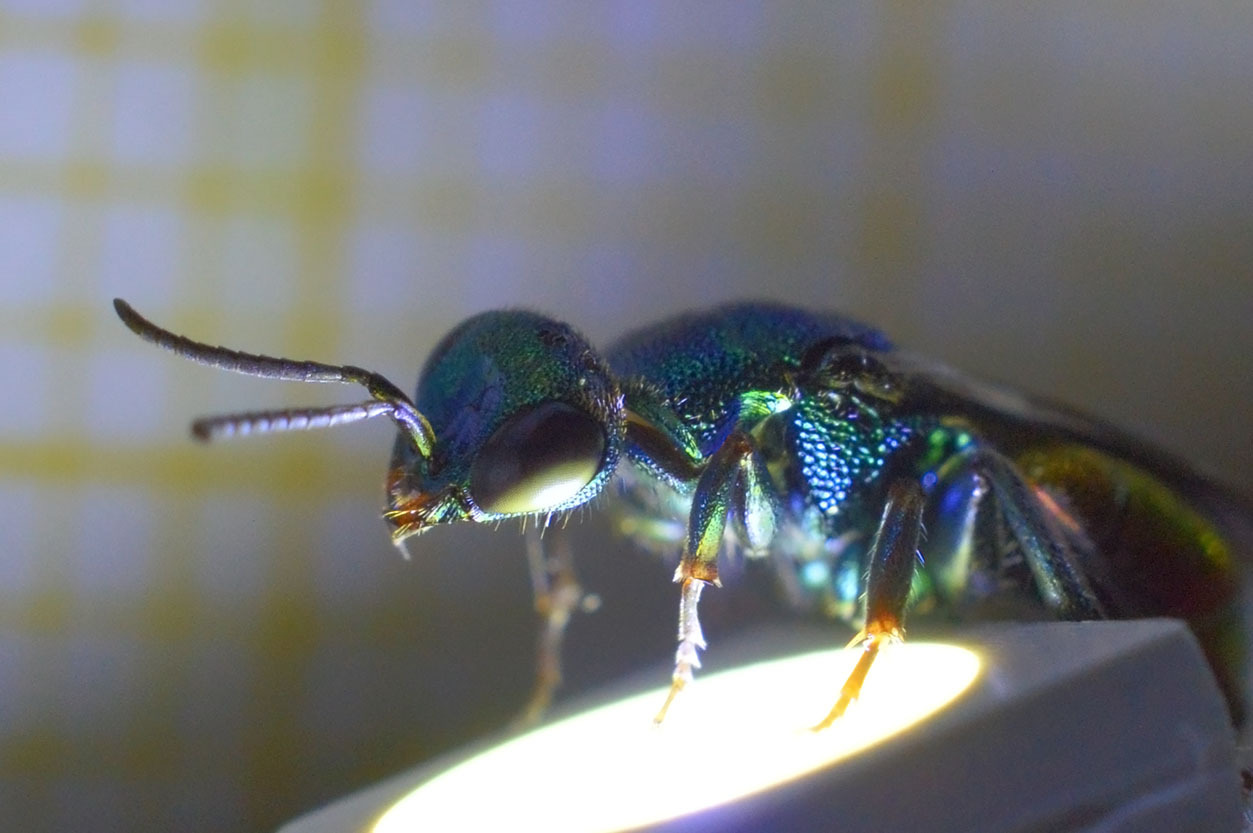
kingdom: Animalia
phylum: Arthropoda
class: Insecta
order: Hymenoptera
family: Chrysididae
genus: Hedychrum
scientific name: Hedychrum gerstaeckeri
